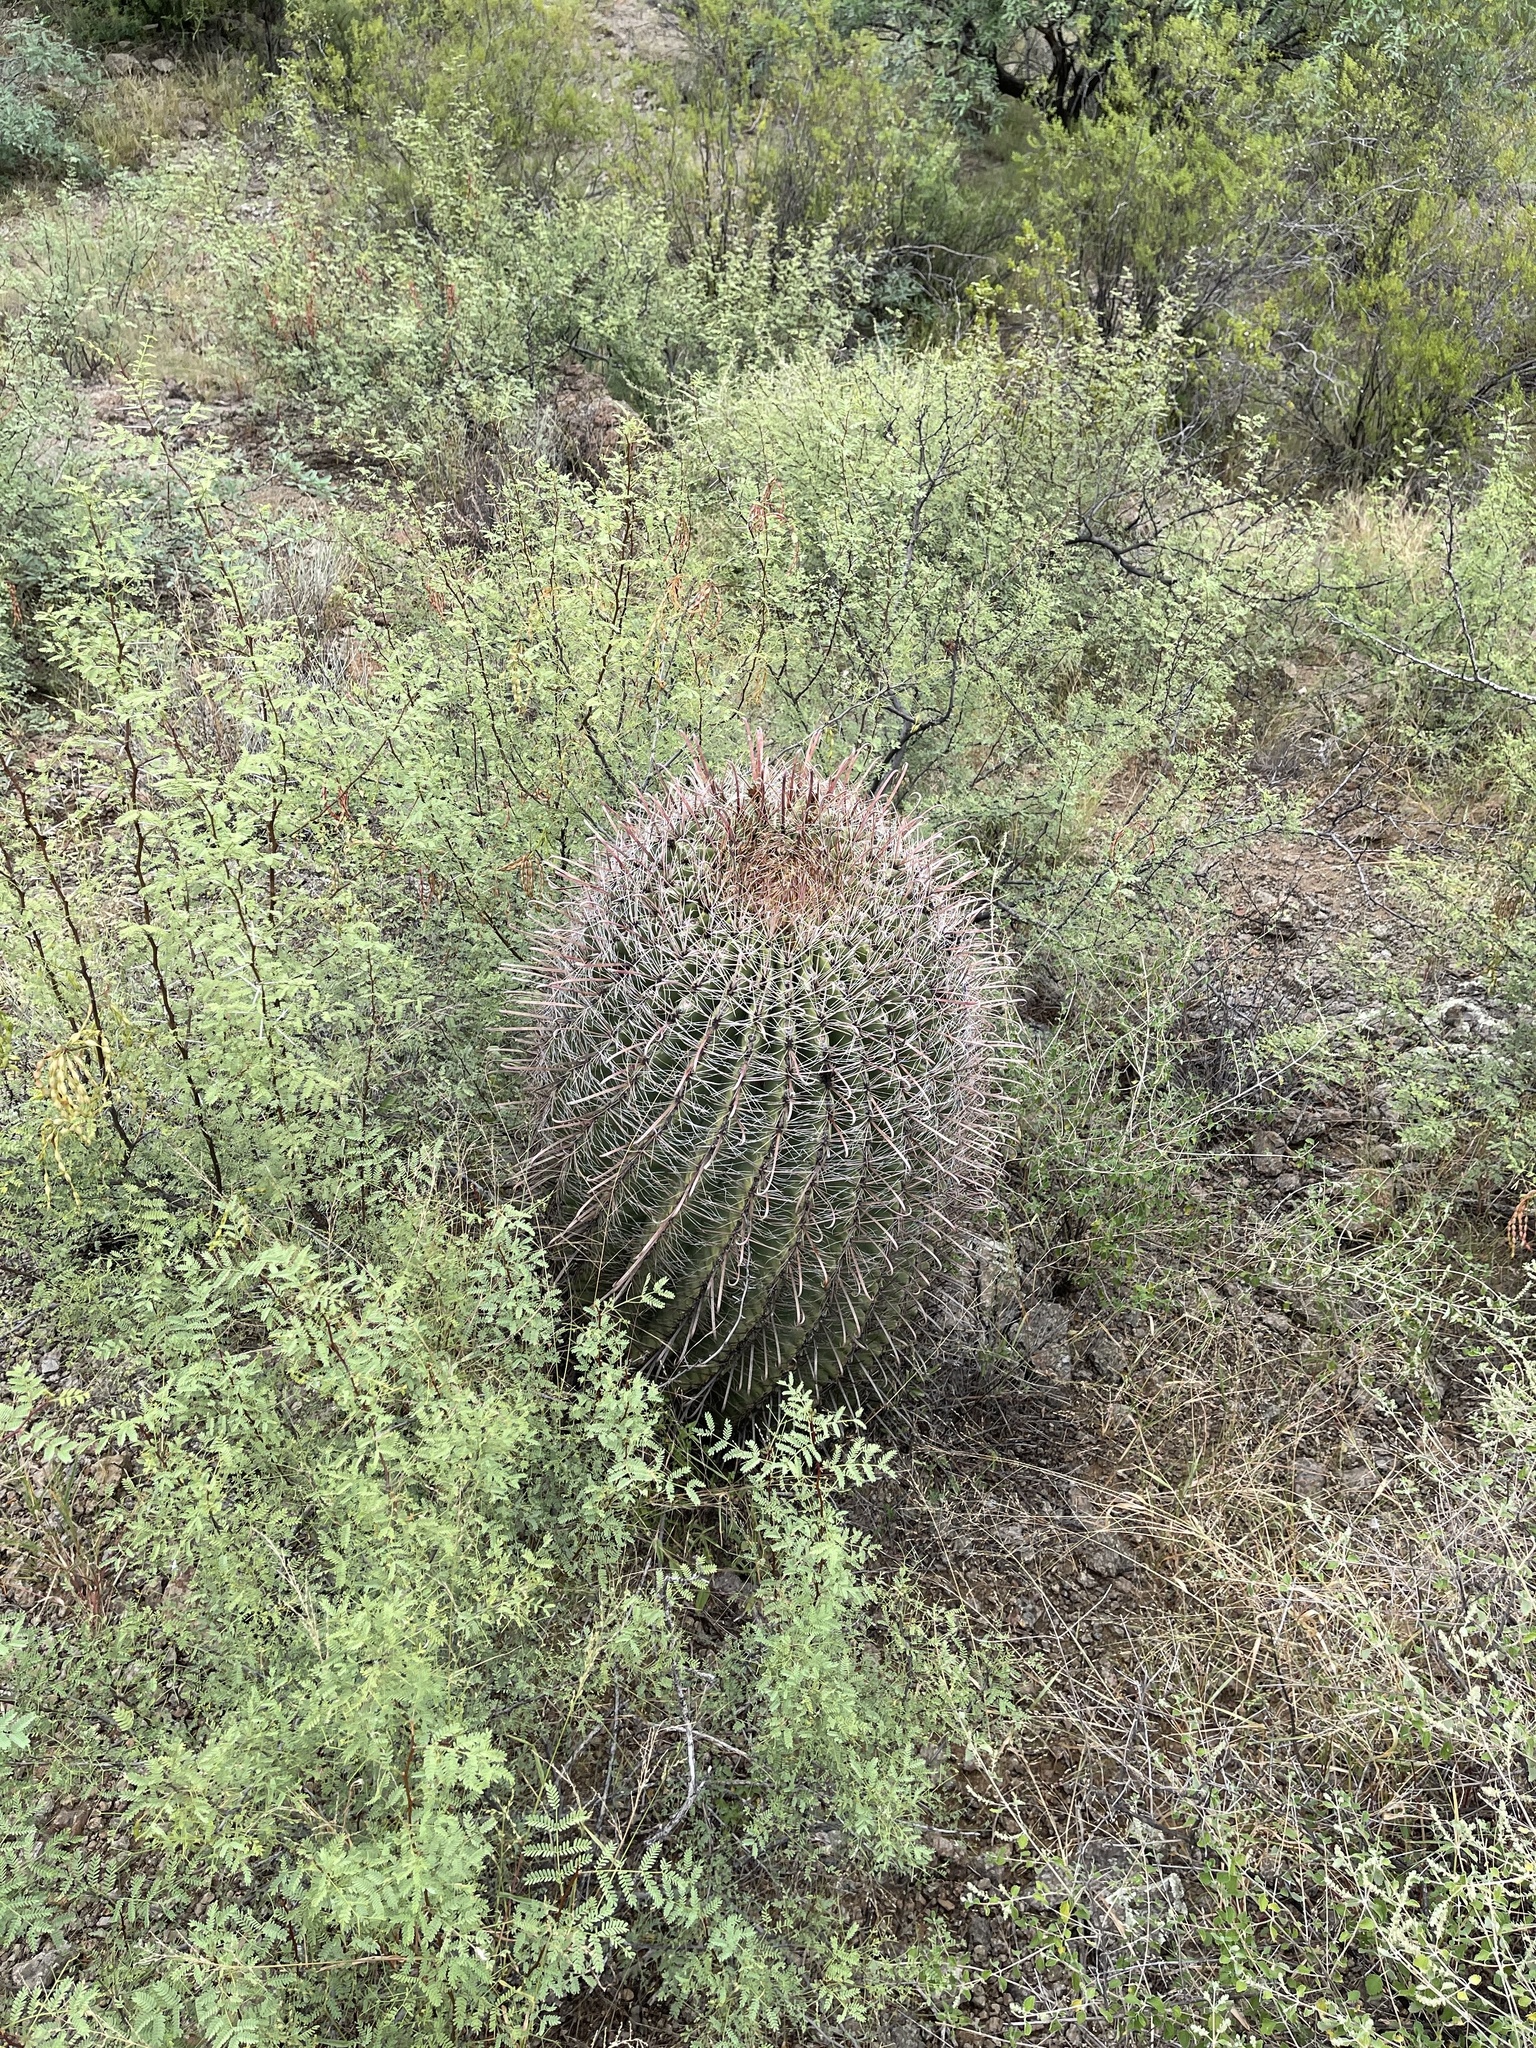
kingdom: Plantae
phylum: Tracheophyta
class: Magnoliopsida
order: Caryophyllales
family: Cactaceae
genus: Ferocactus
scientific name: Ferocactus wislizeni
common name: Candy barrel cactus
